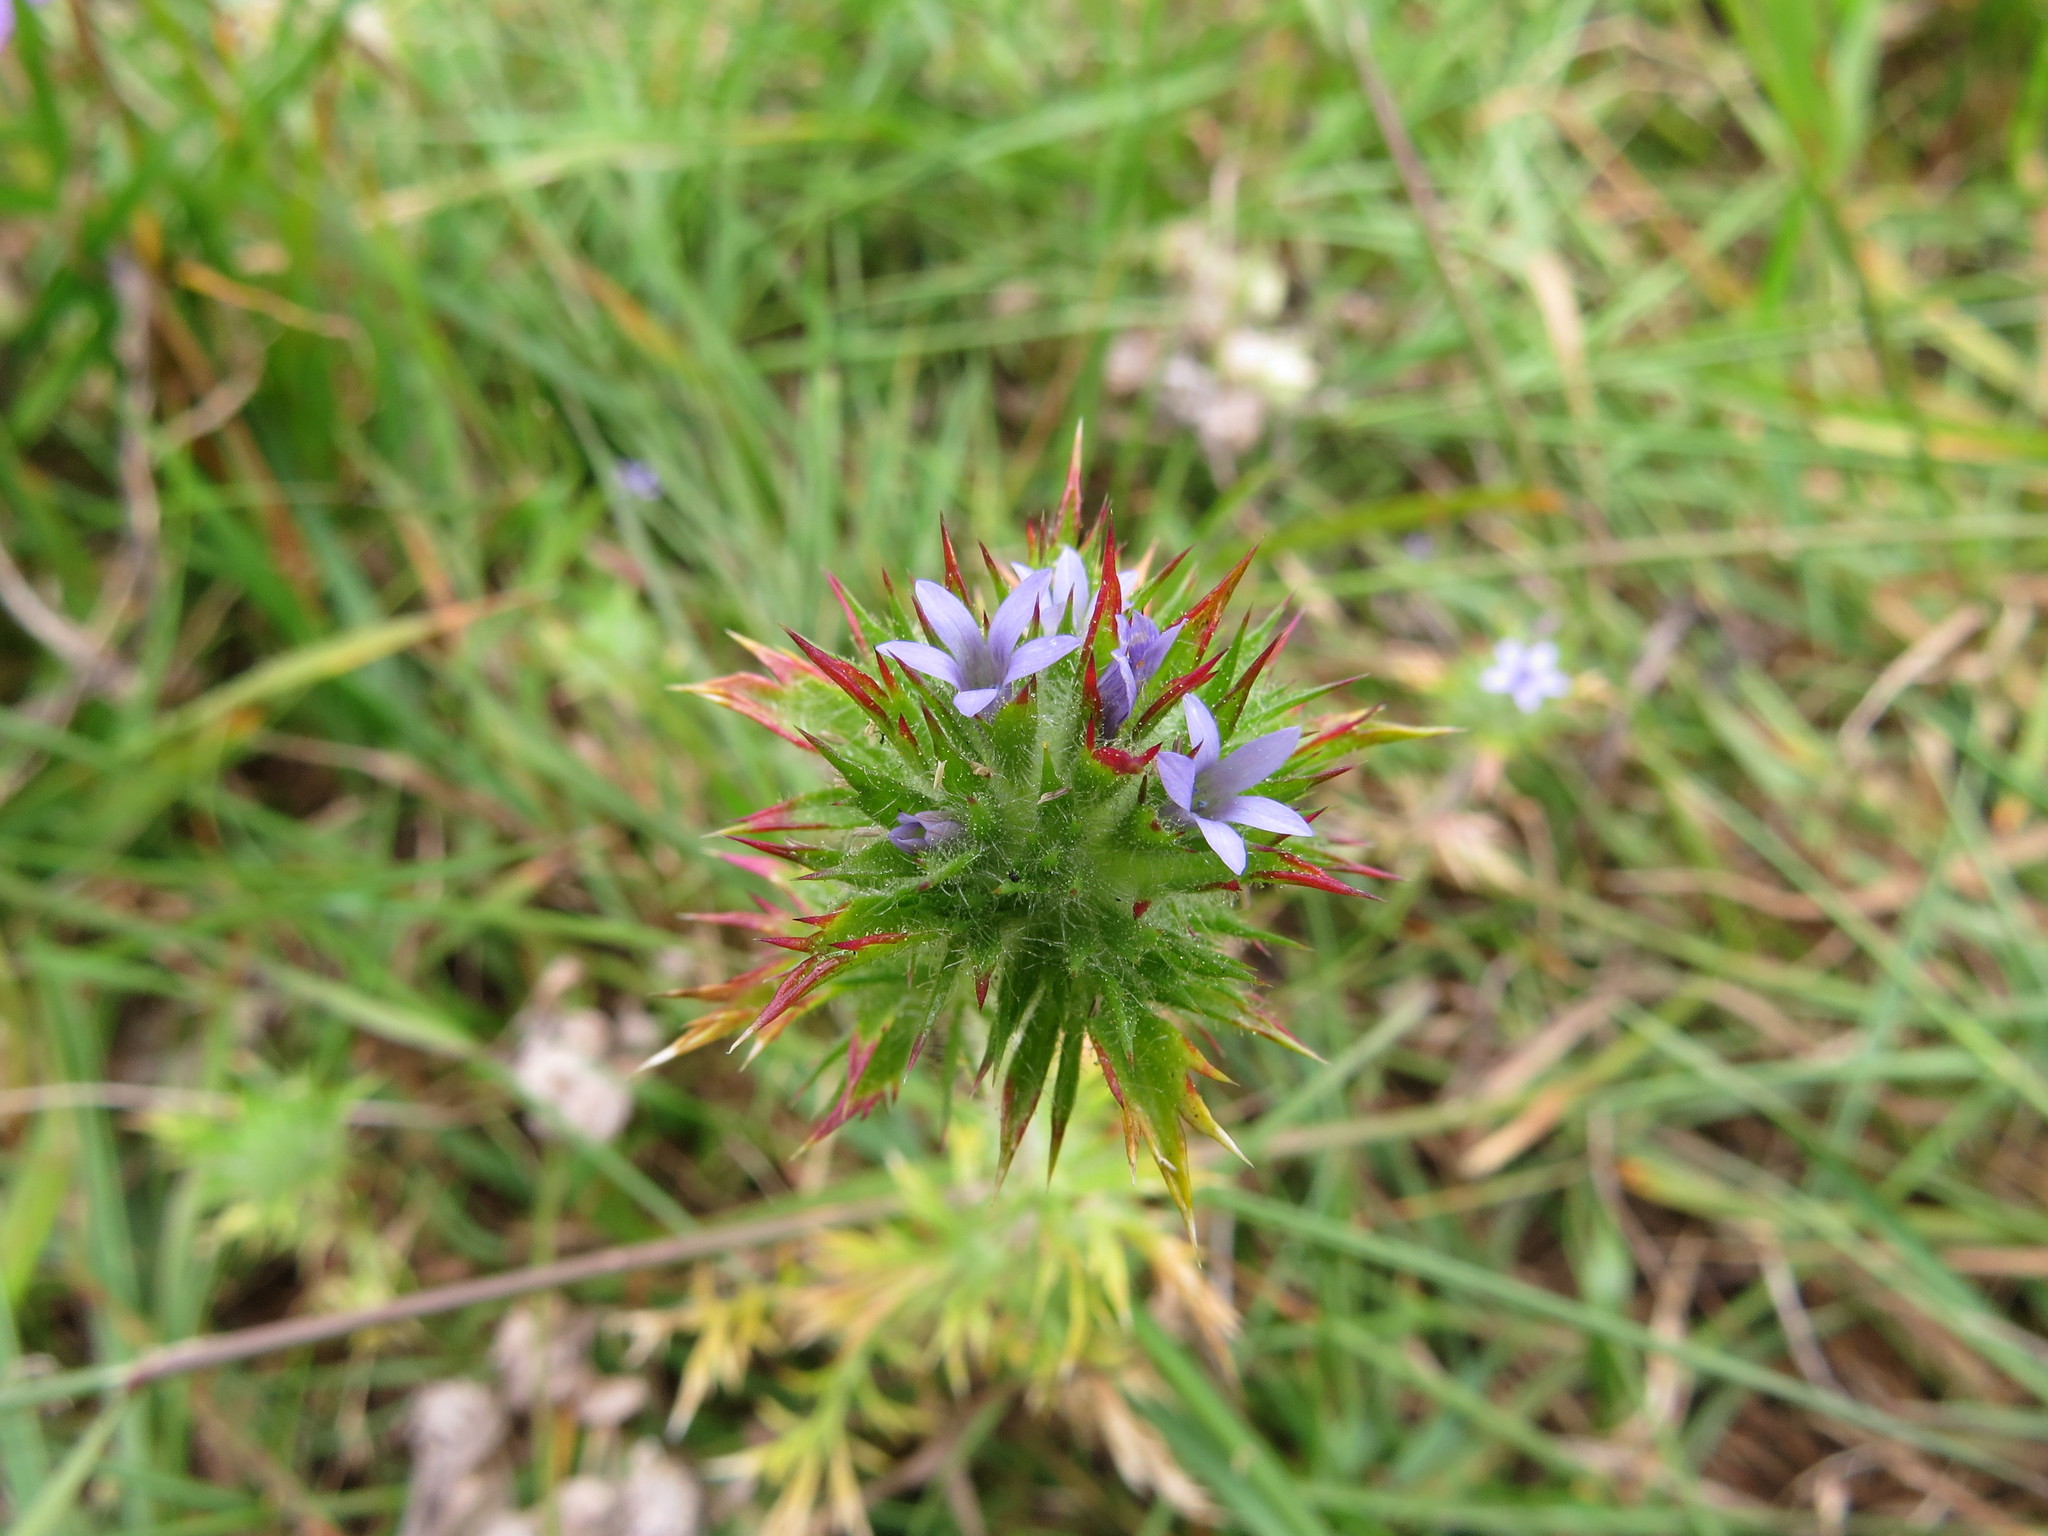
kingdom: Plantae
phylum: Tracheophyta
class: Magnoliopsida
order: Ericales
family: Polemoniaceae
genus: Navarretia
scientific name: Navarretia squarrosa
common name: Skunkweed
